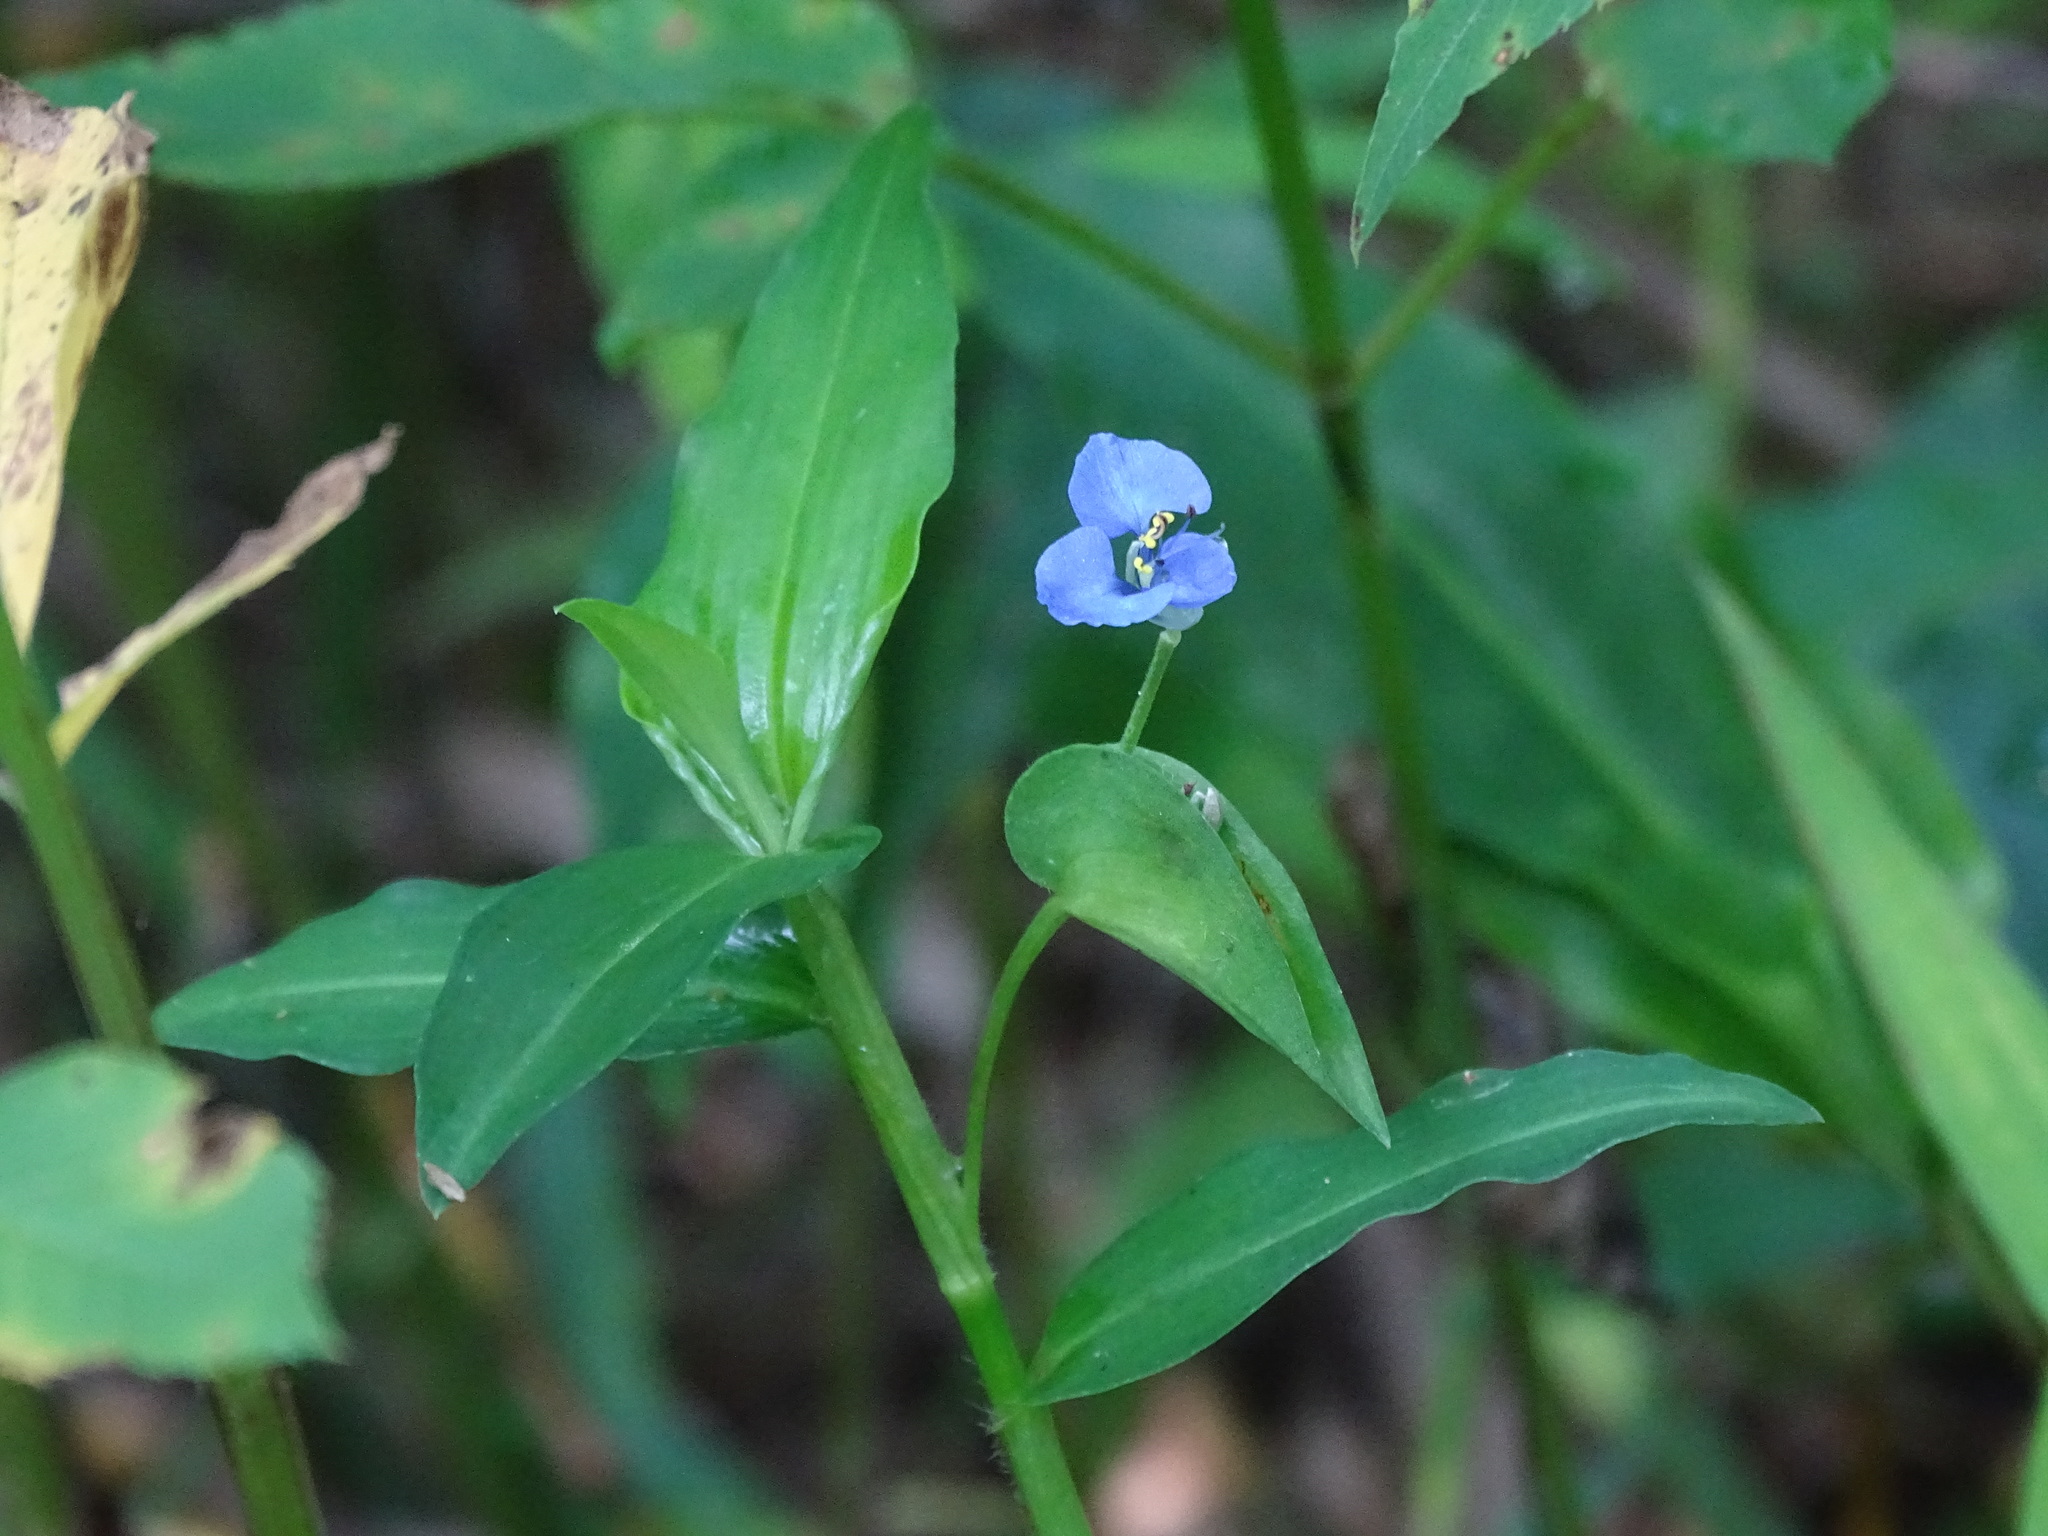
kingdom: Plantae
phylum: Tracheophyta
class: Liliopsida
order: Commelinales
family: Commelinaceae
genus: Commelina
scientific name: Commelina diffusa
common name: Climbing dayflower
